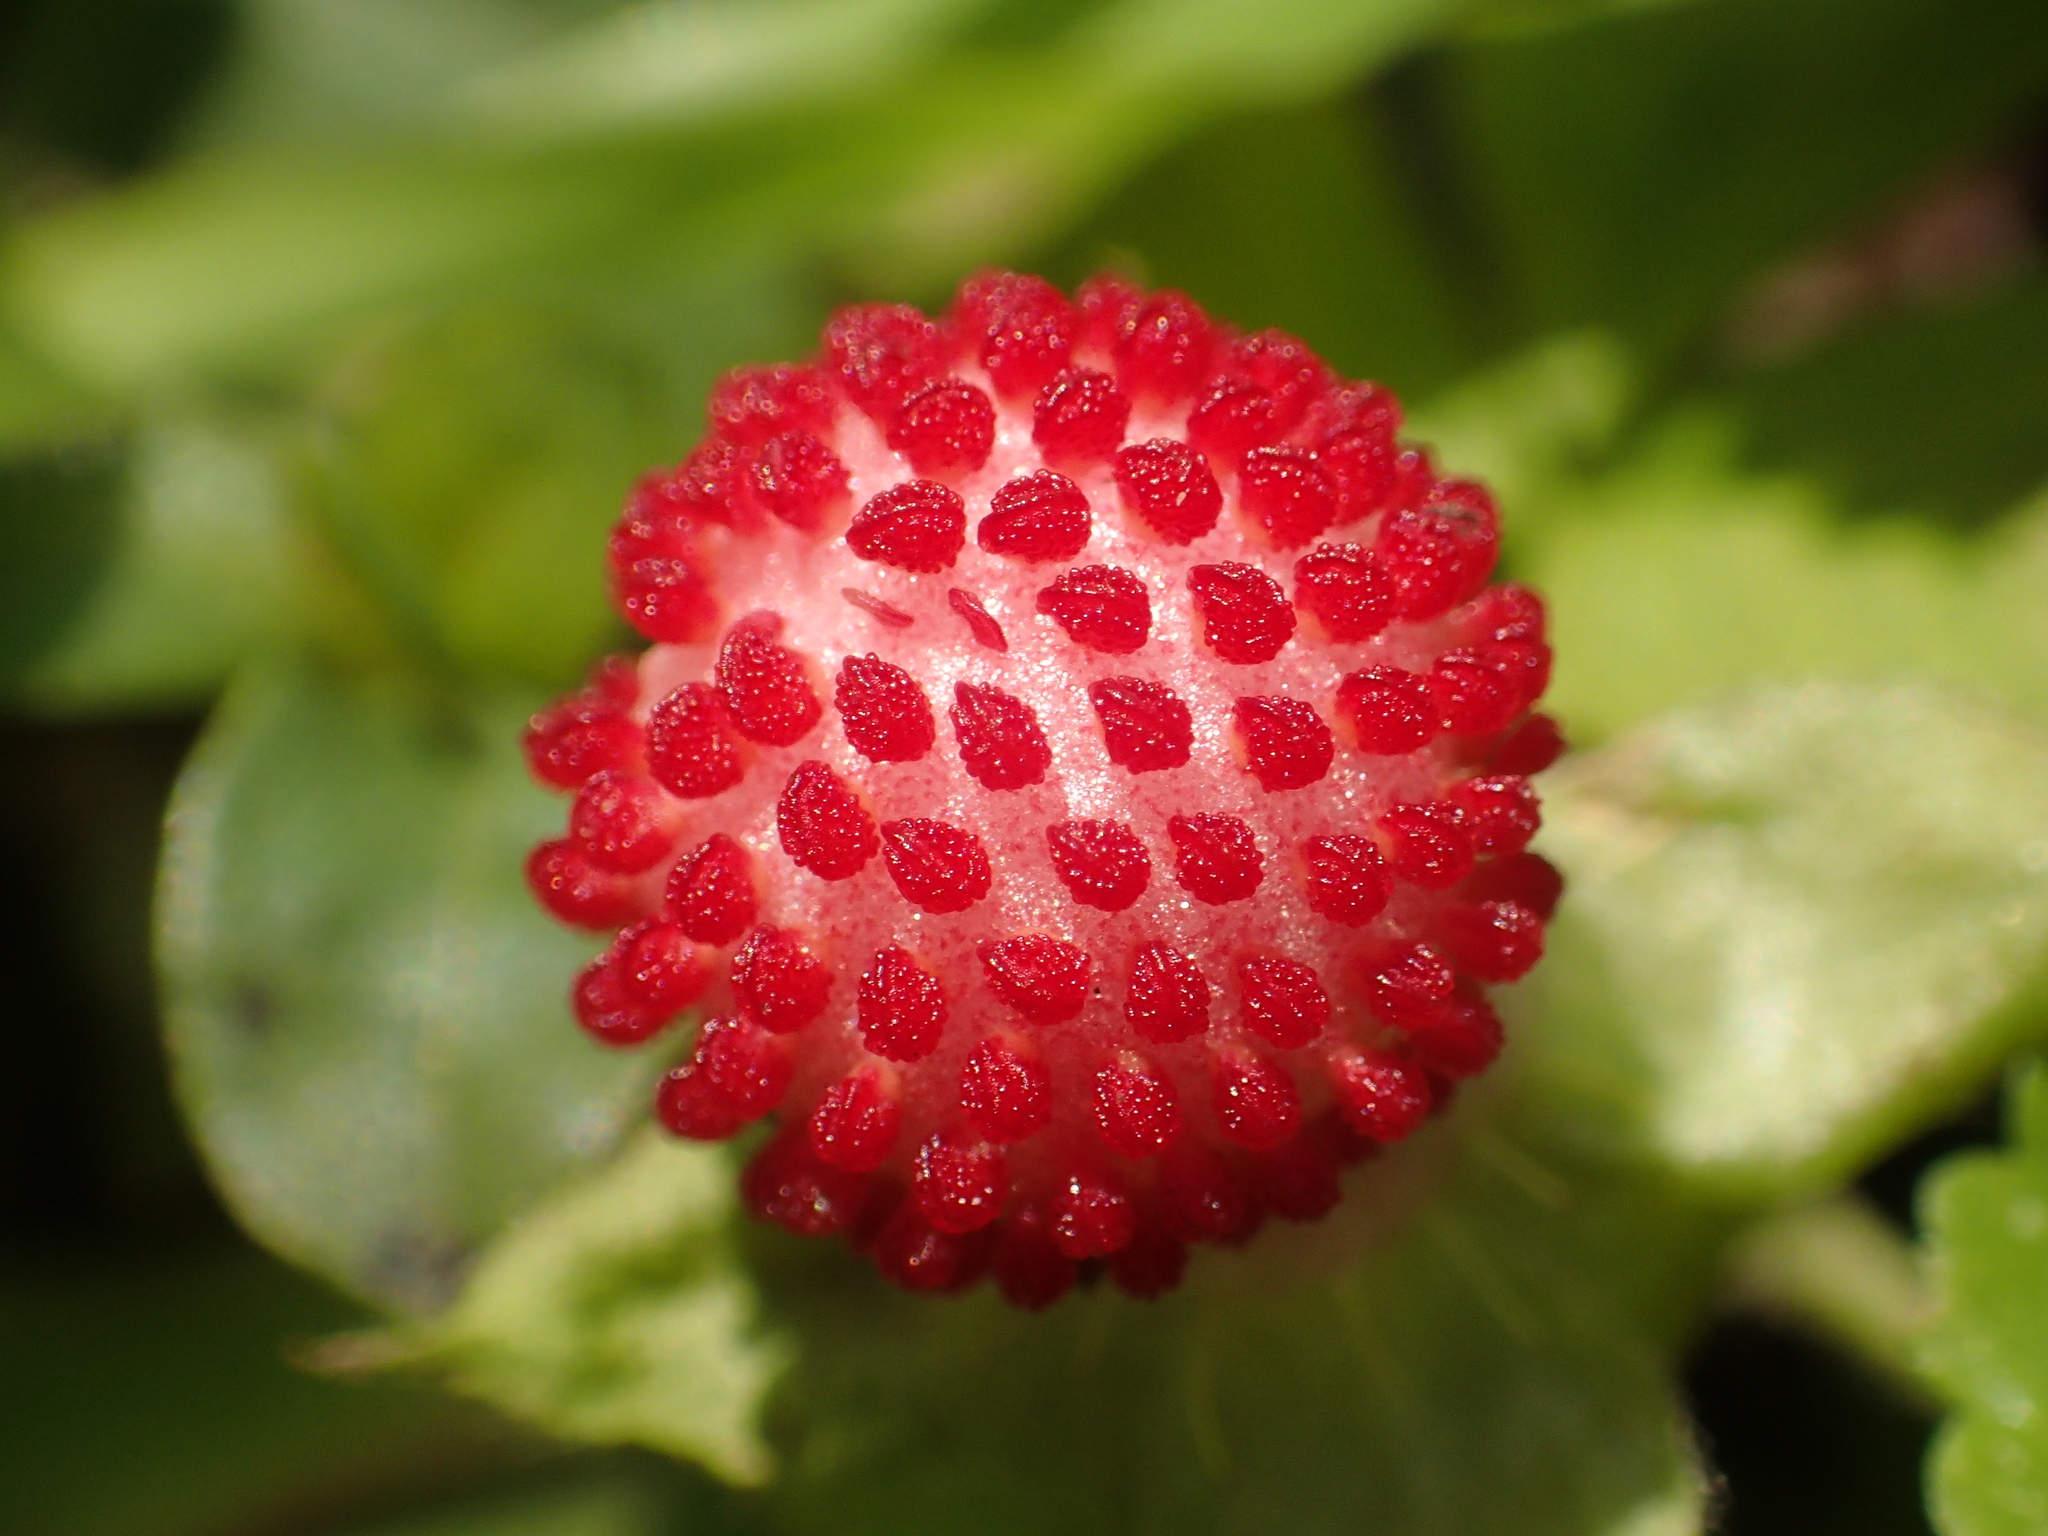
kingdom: Plantae
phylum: Tracheophyta
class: Magnoliopsida
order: Rosales
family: Rosaceae
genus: Potentilla
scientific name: Potentilla wallichiana
